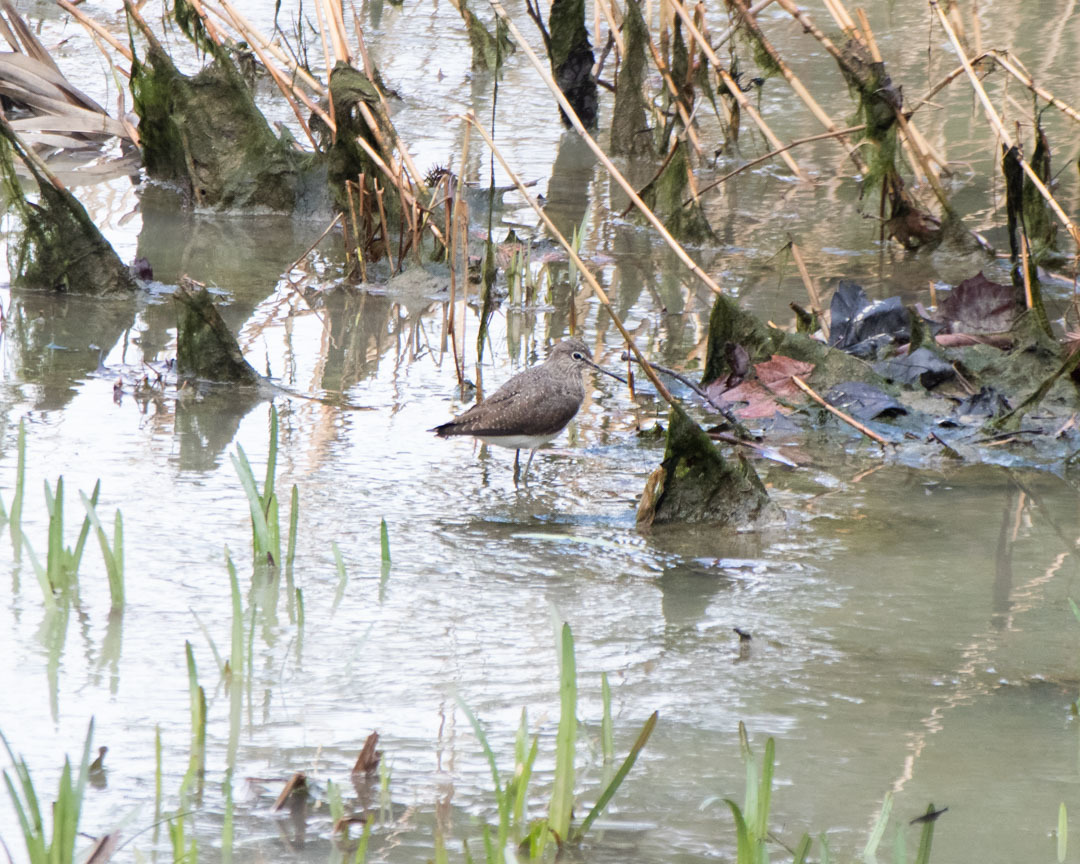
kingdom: Animalia
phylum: Chordata
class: Aves
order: Charadriiformes
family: Scolopacidae
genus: Tringa
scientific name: Tringa ochropus
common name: Green sandpiper
